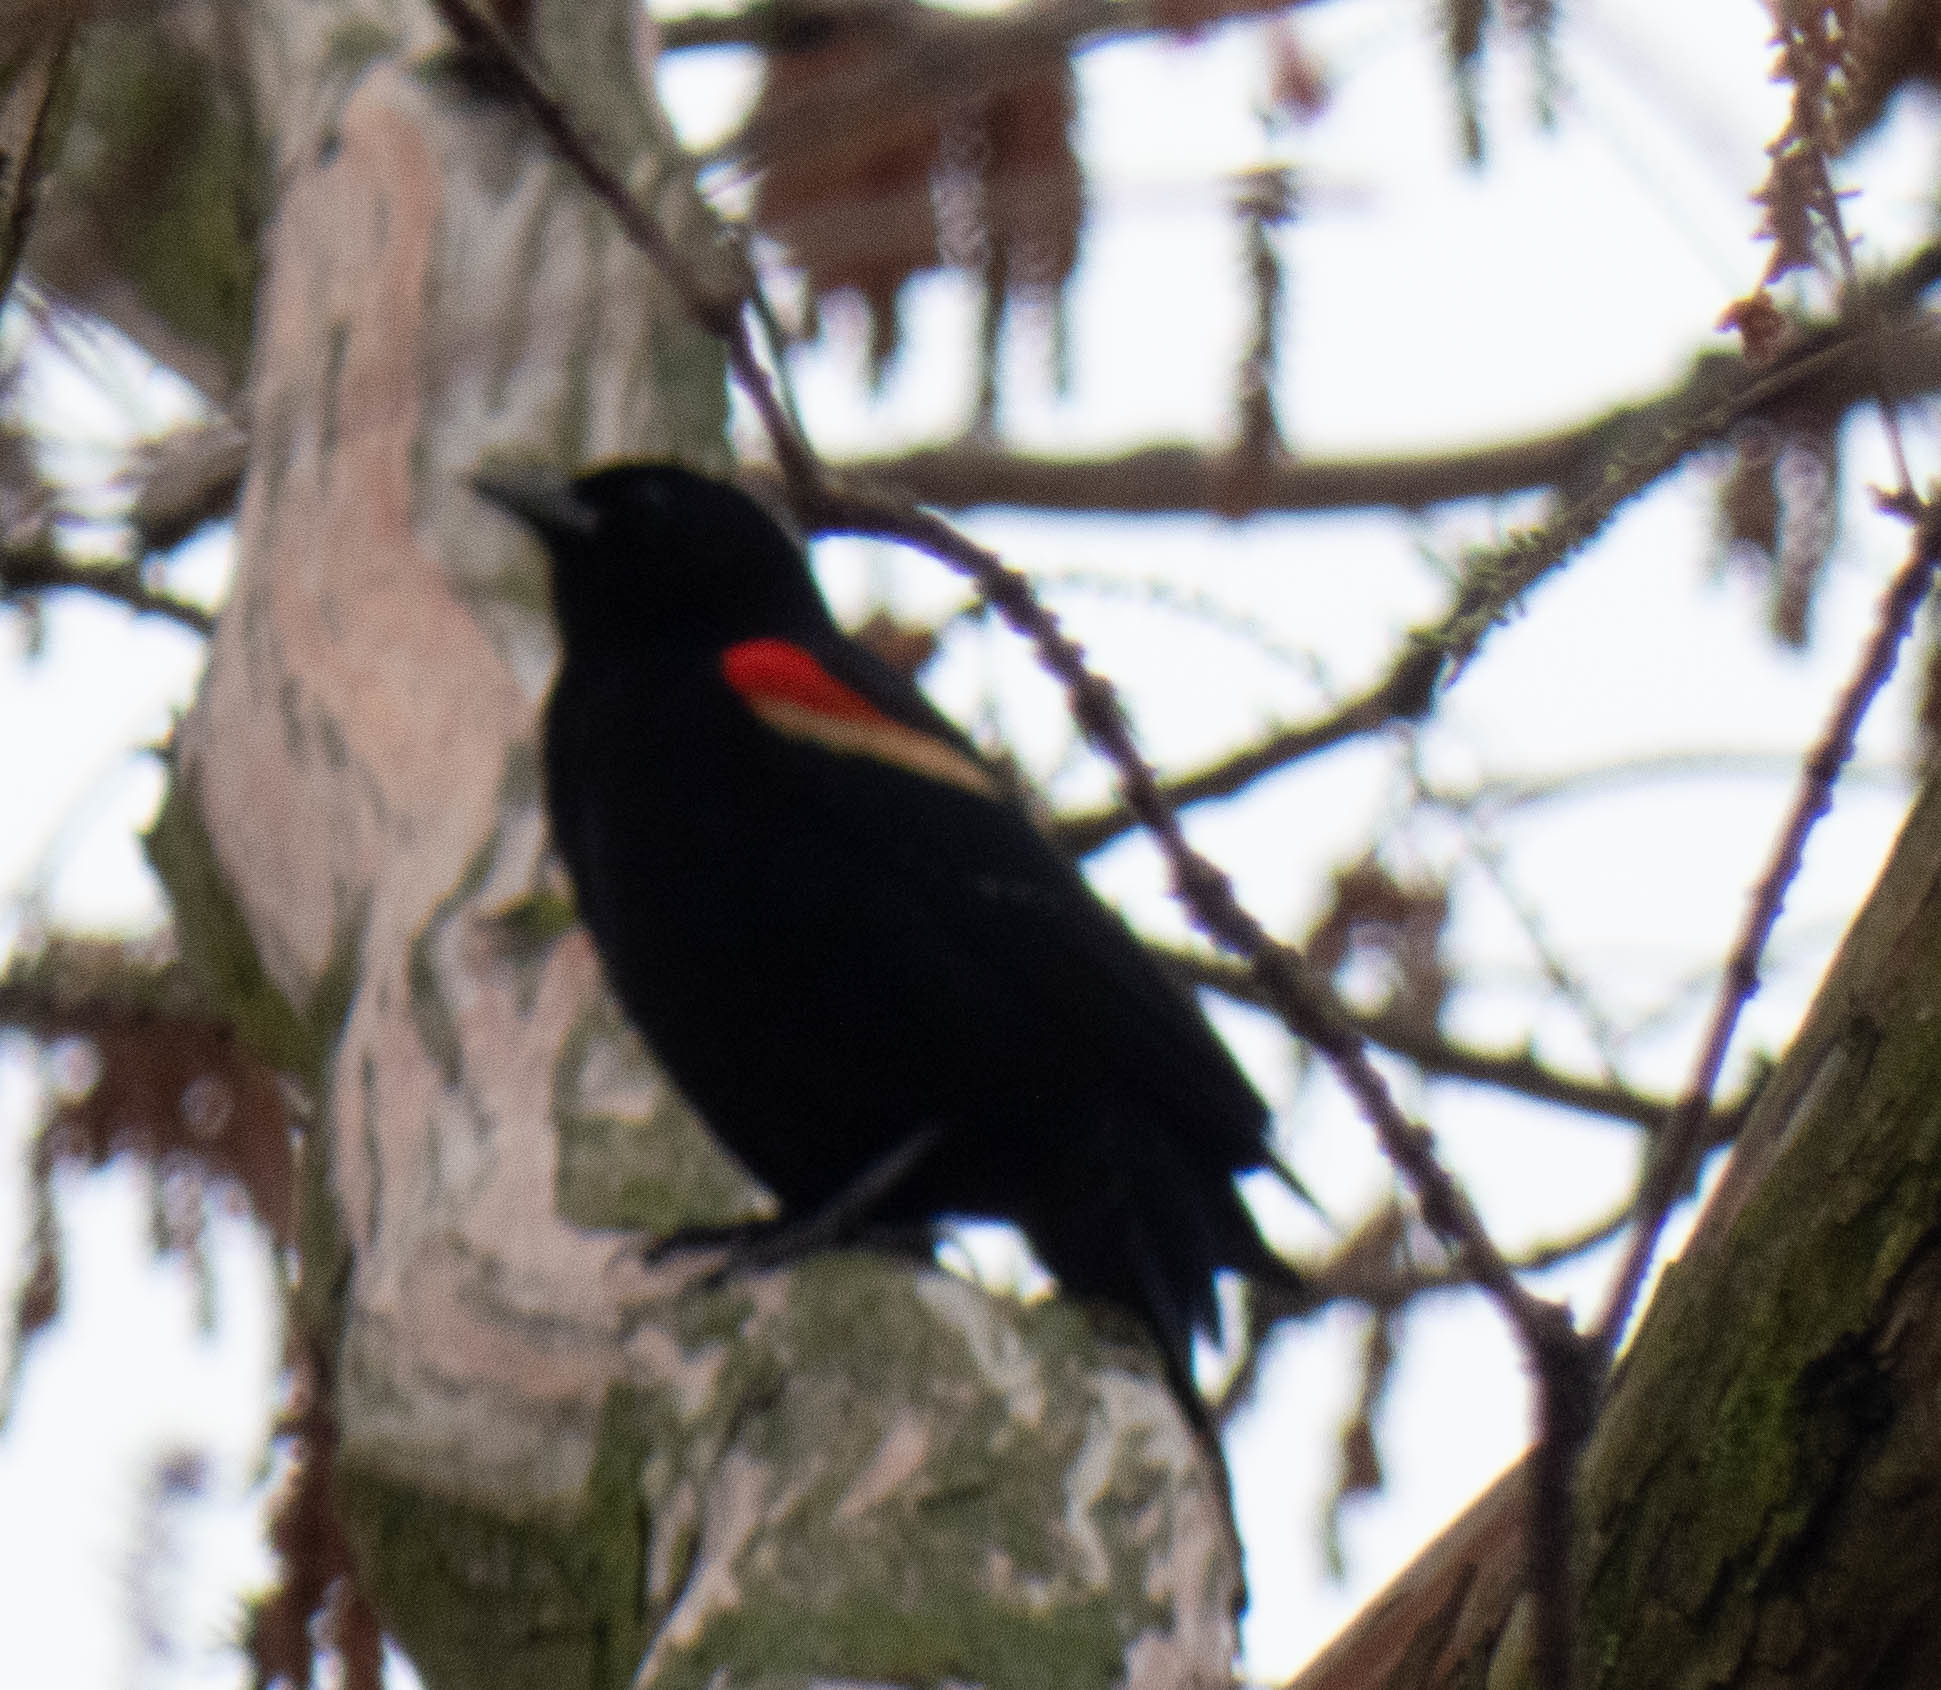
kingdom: Animalia
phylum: Chordata
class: Aves
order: Passeriformes
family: Icteridae
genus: Agelaius
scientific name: Agelaius phoeniceus
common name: Red-winged blackbird
